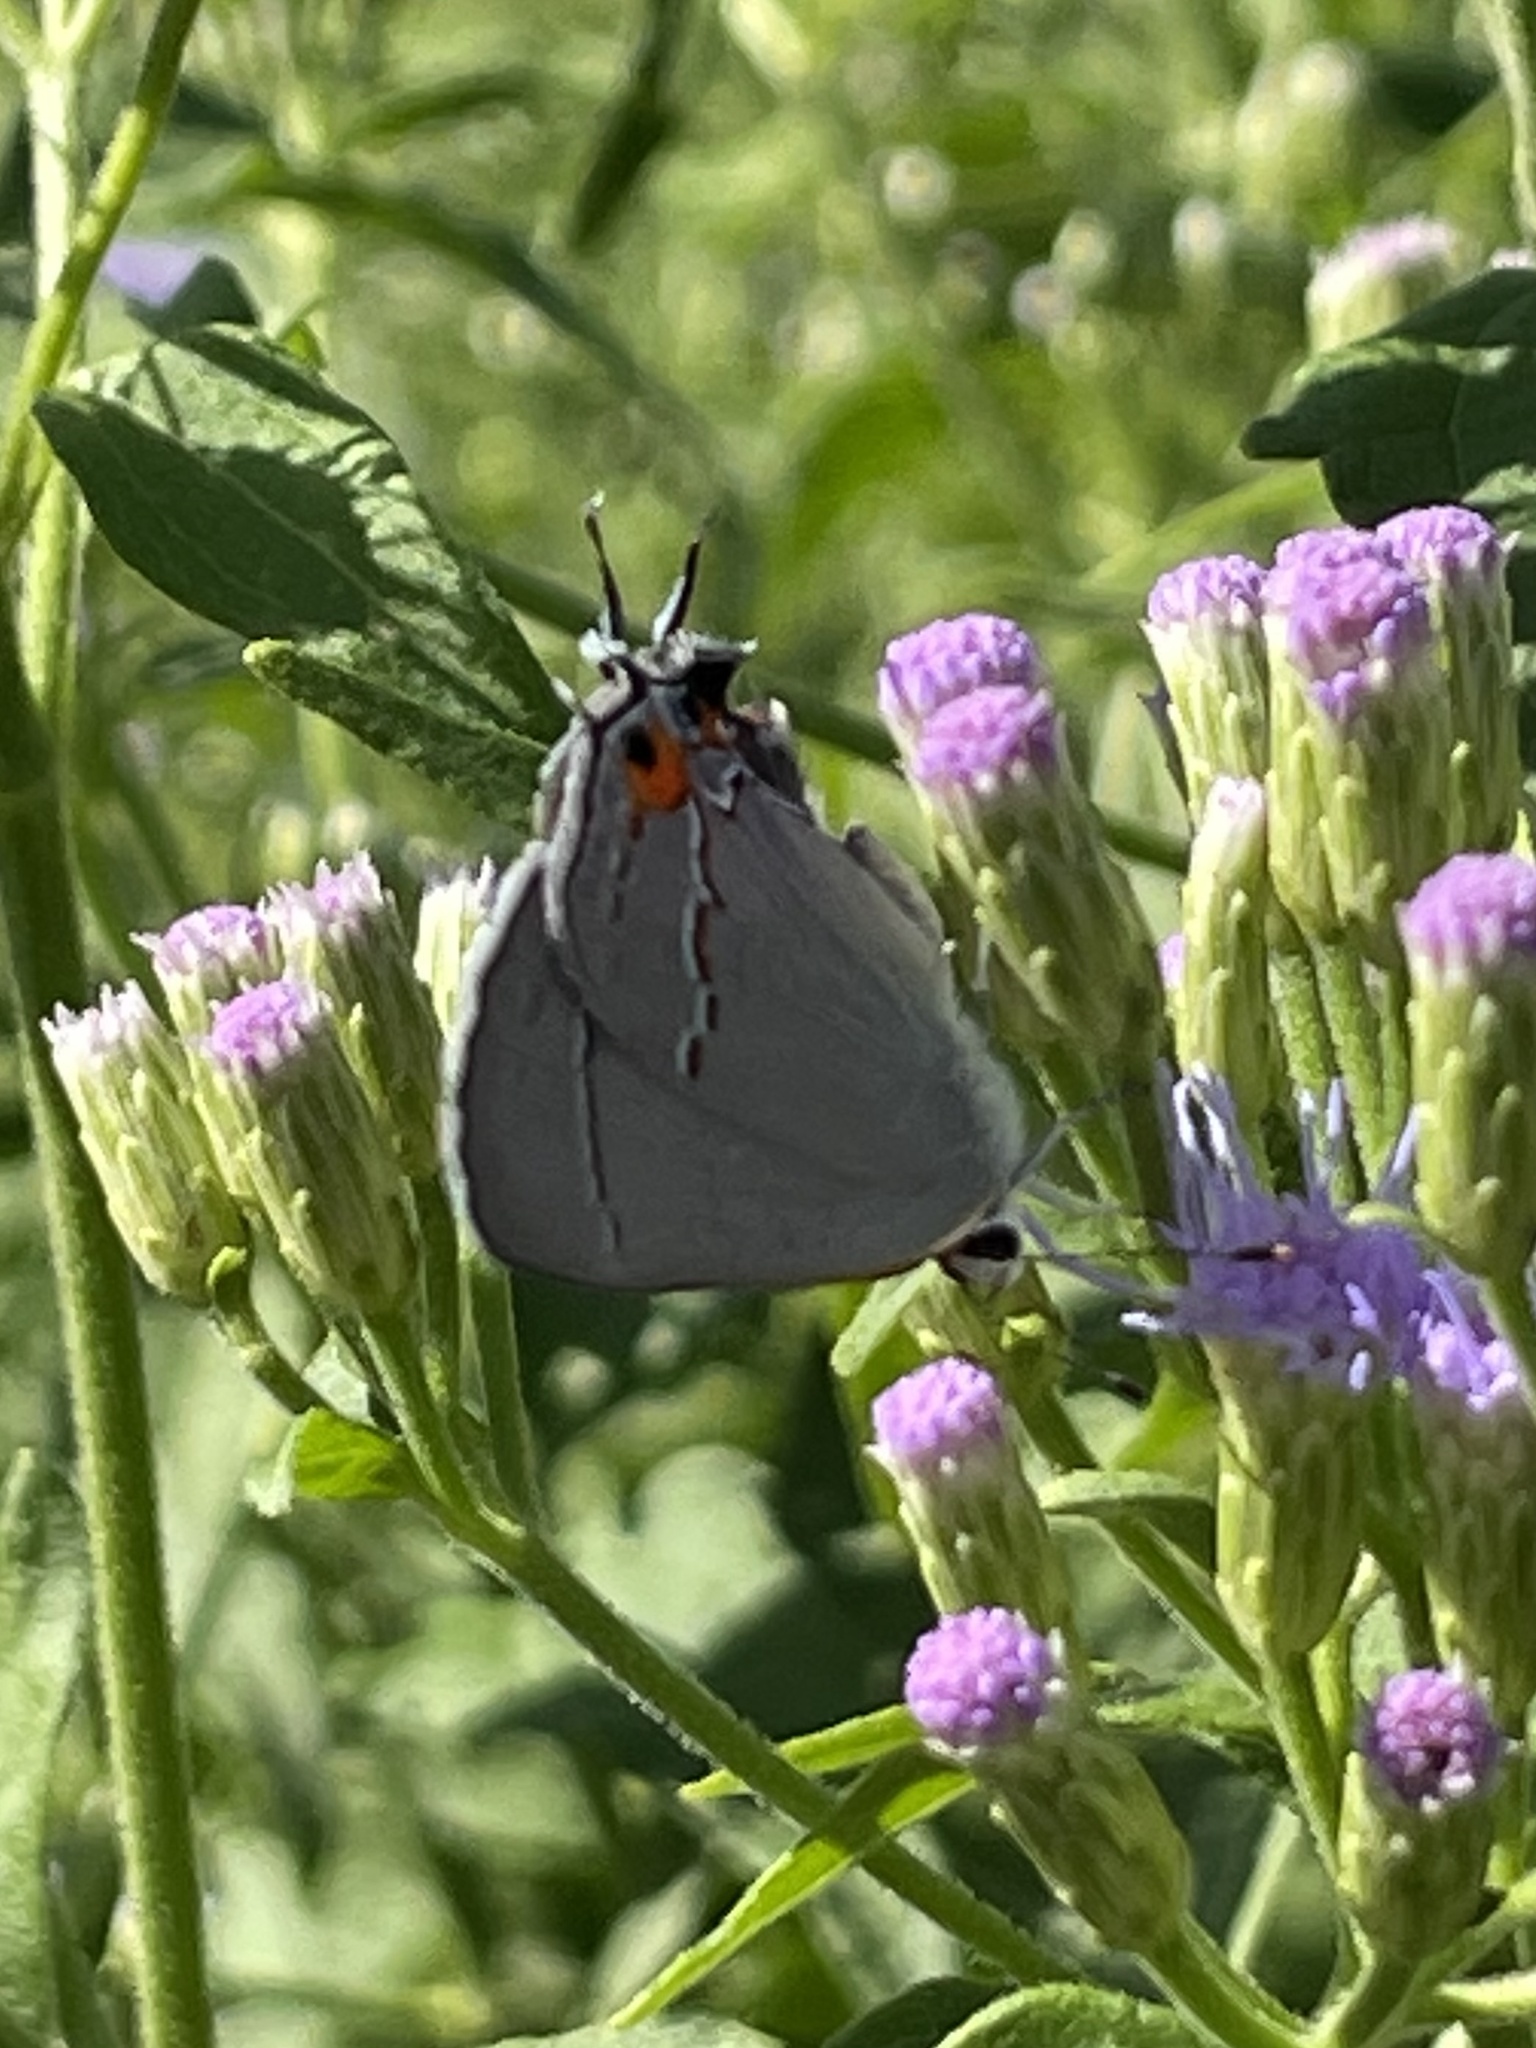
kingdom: Animalia
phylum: Arthropoda
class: Insecta
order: Lepidoptera
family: Lycaenidae
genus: Strymon
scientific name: Strymon melinus
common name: Gray hairstreak
